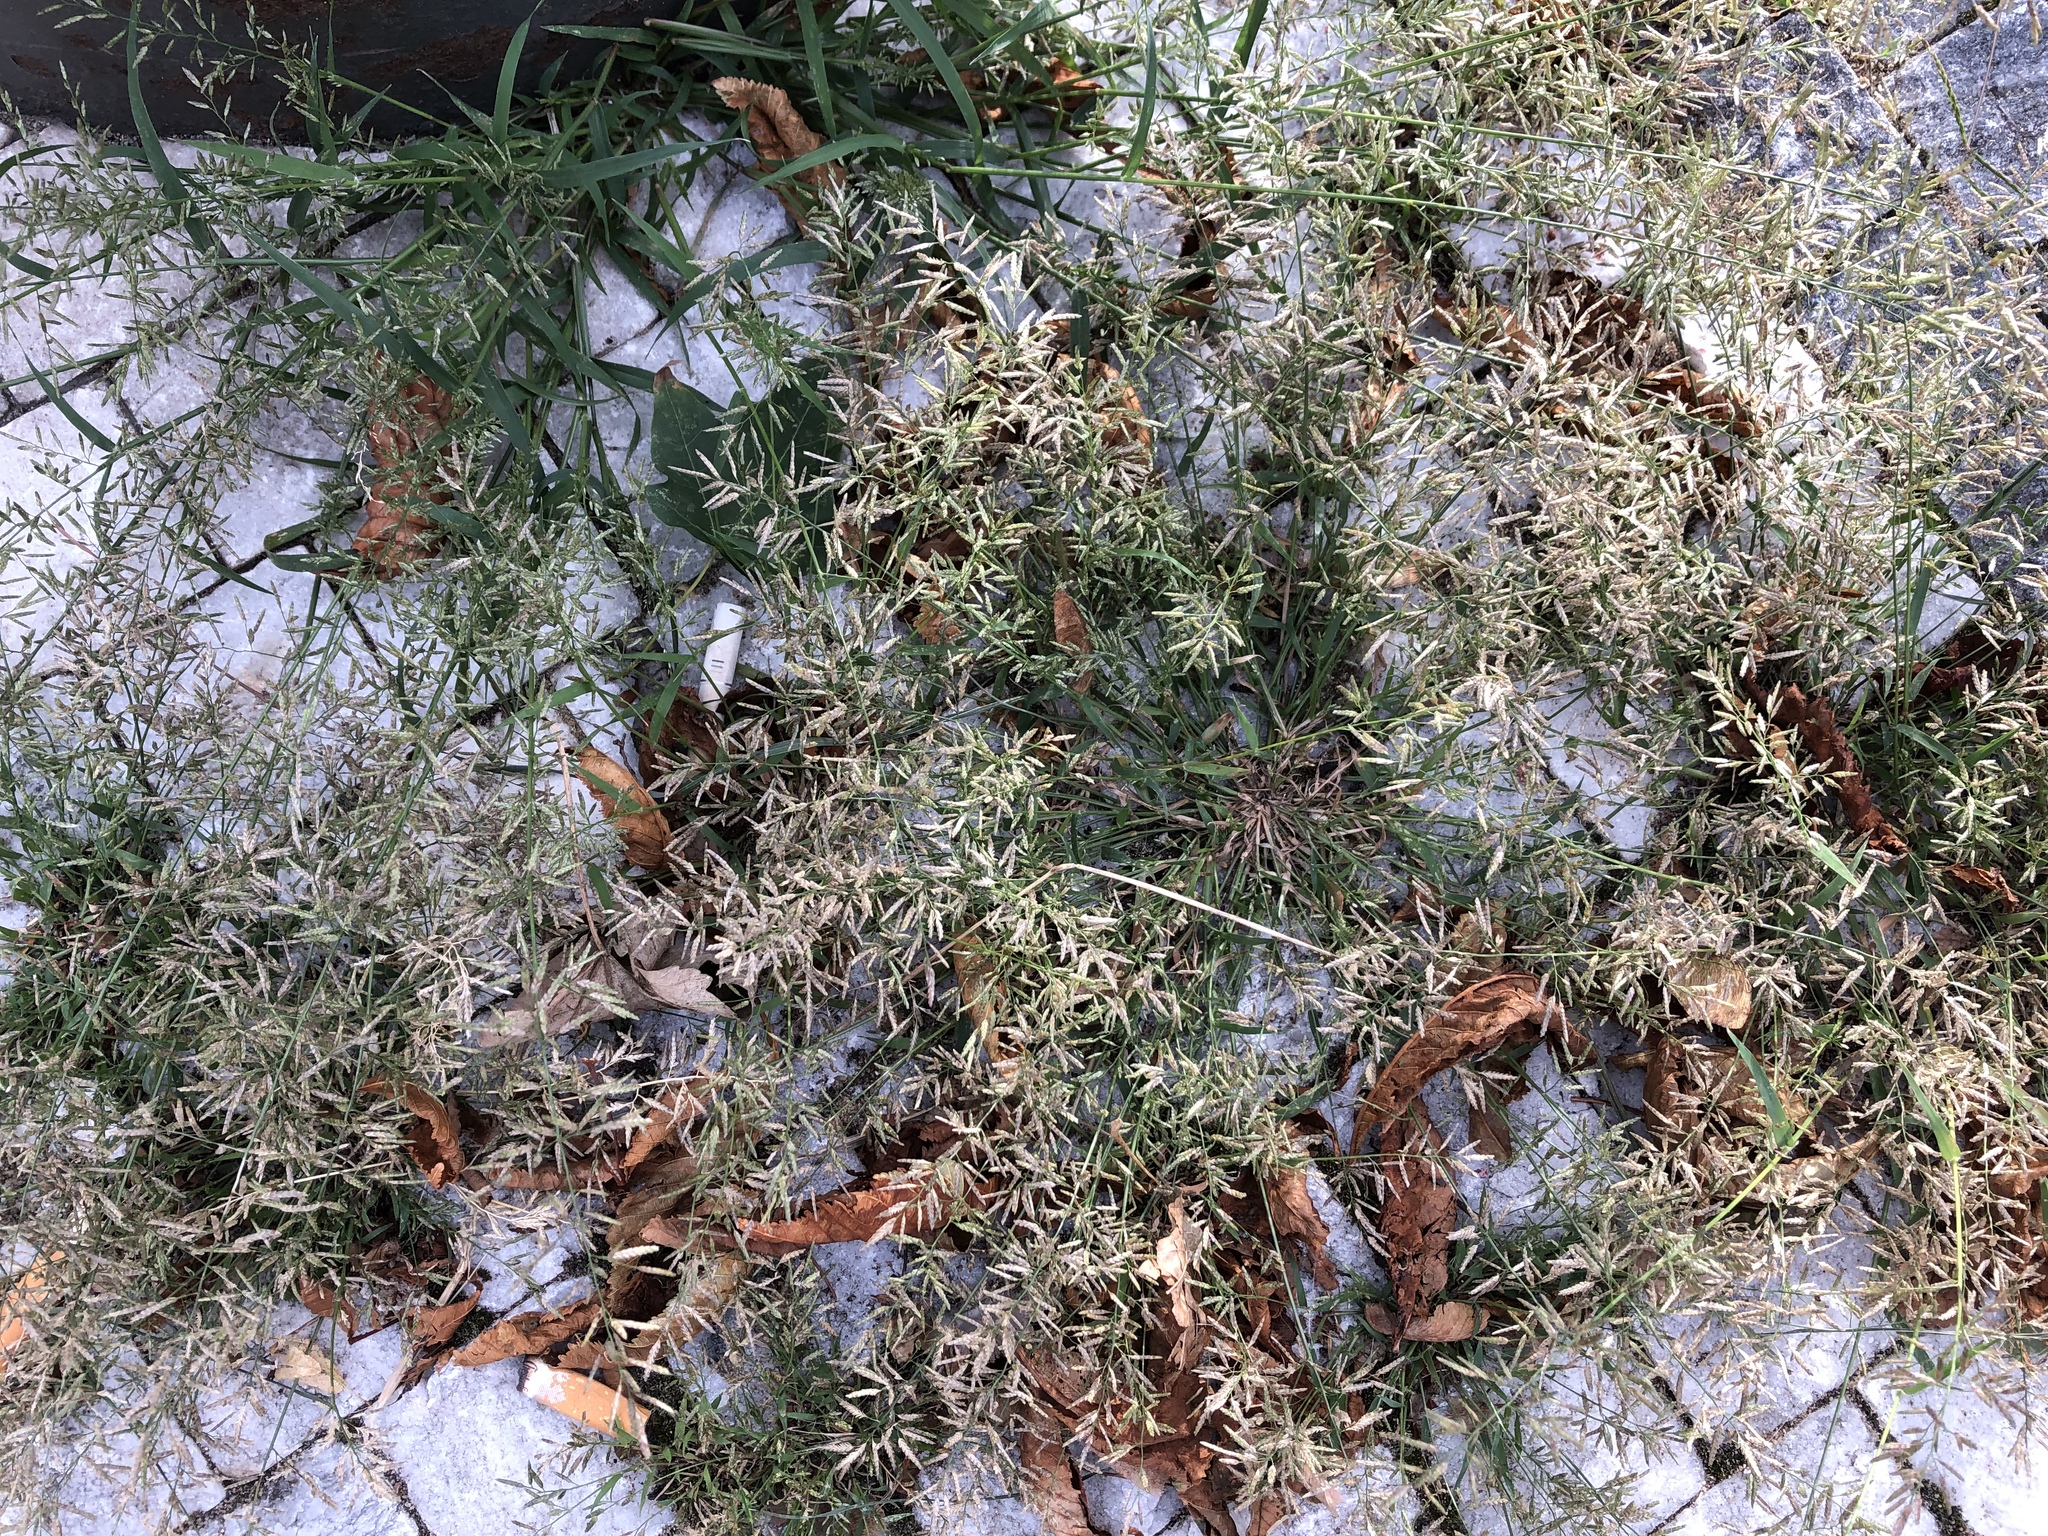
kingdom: Plantae
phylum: Tracheophyta
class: Liliopsida
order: Poales
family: Poaceae
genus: Eragrostis
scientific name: Eragrostis minor
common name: Small love-grass
